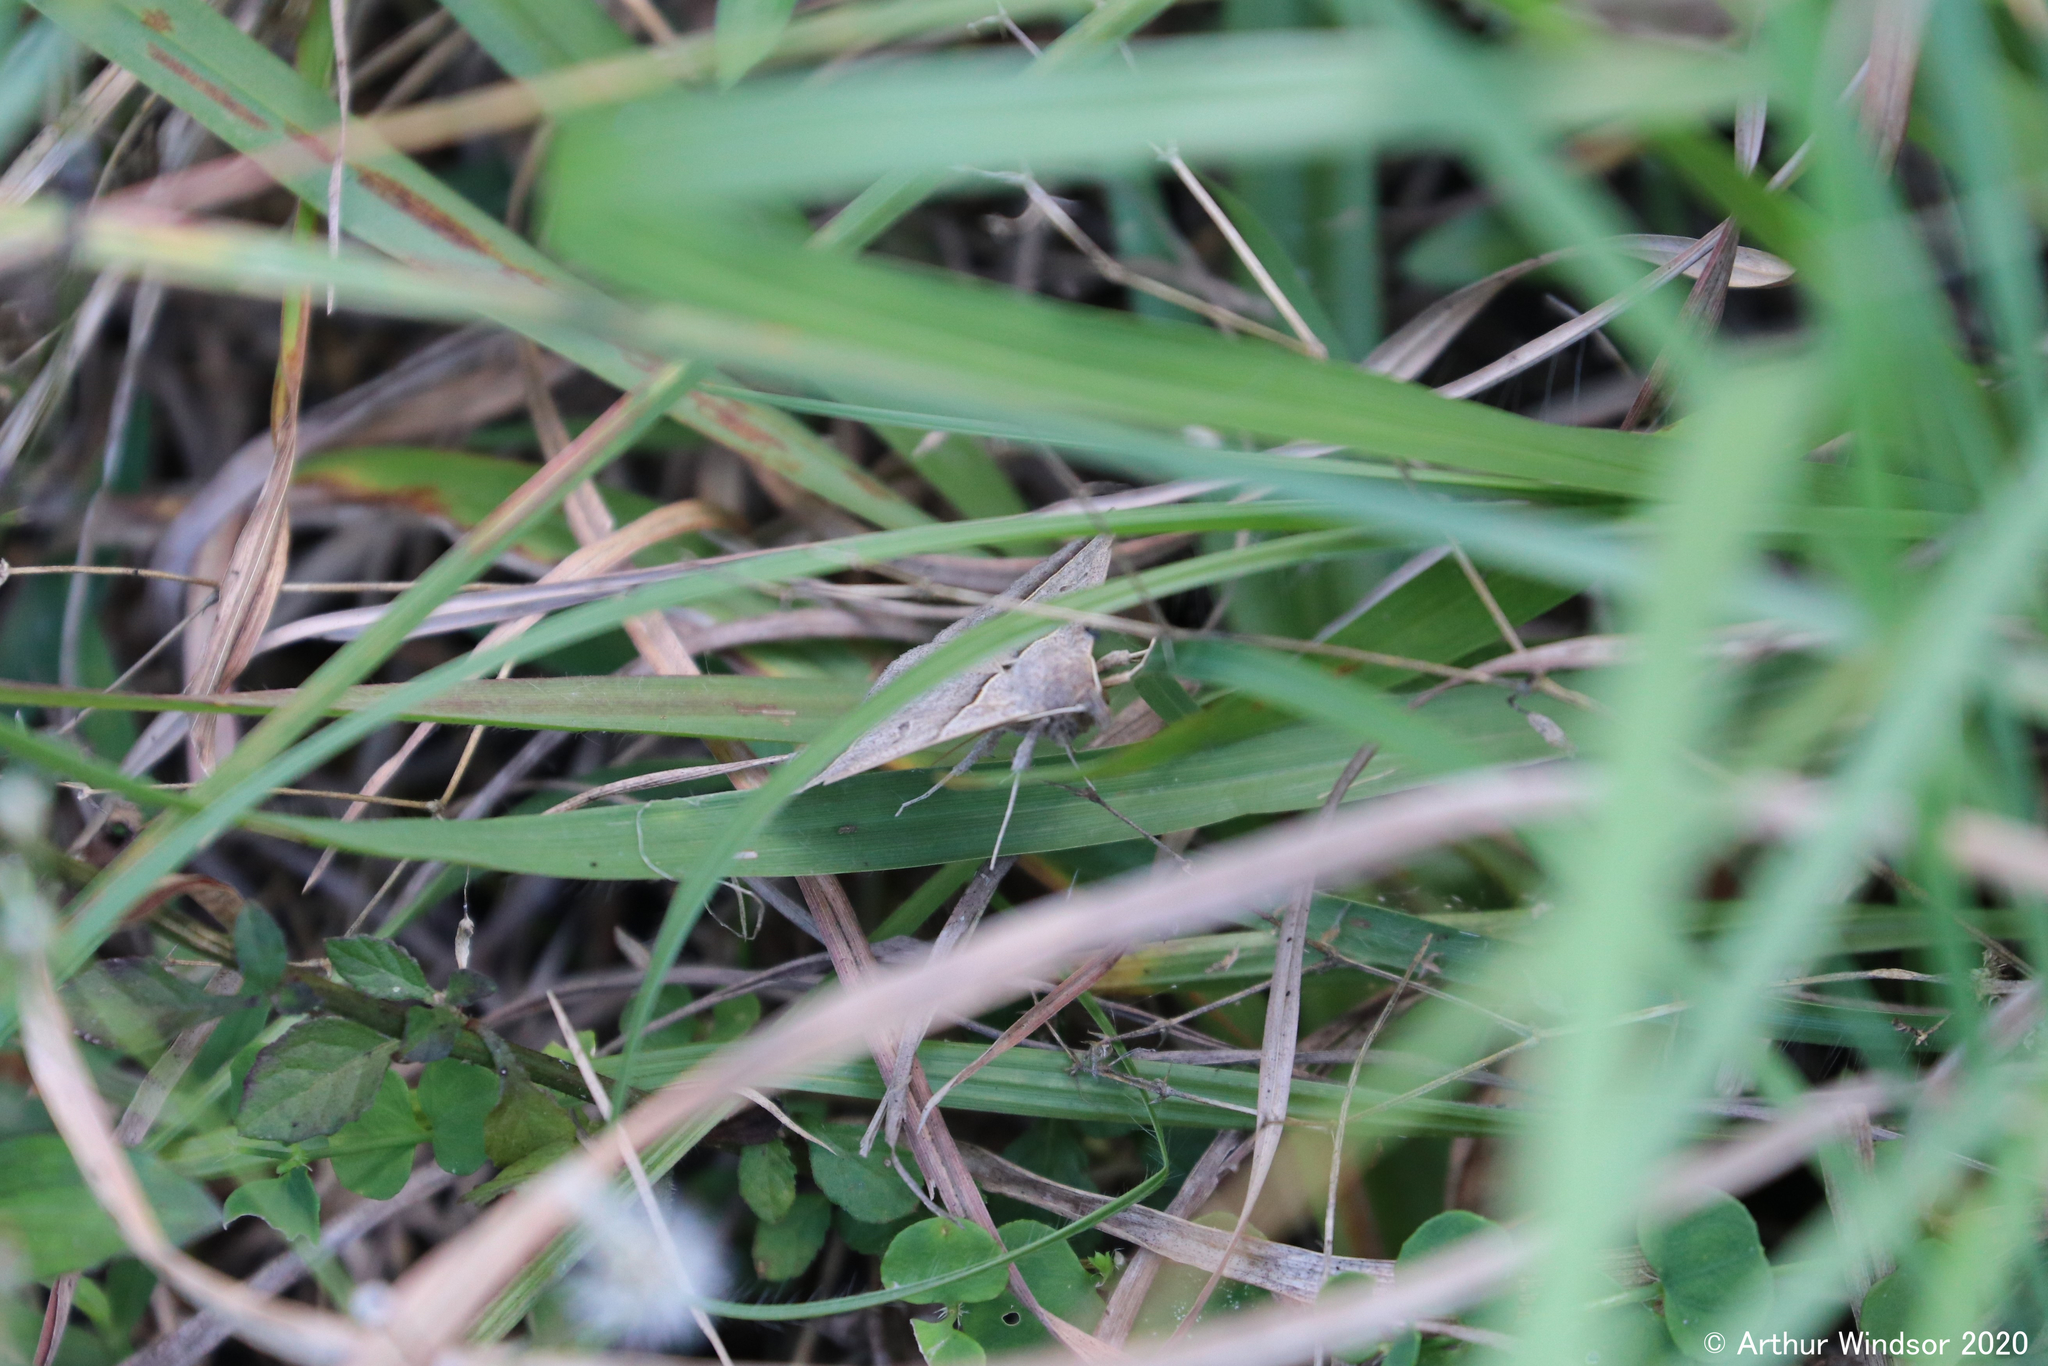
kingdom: Animalia
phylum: Arthropoda
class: Insecta
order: Lepidoptera
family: Erebidae
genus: Ptichodis
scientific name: Ptichodis vinculum
